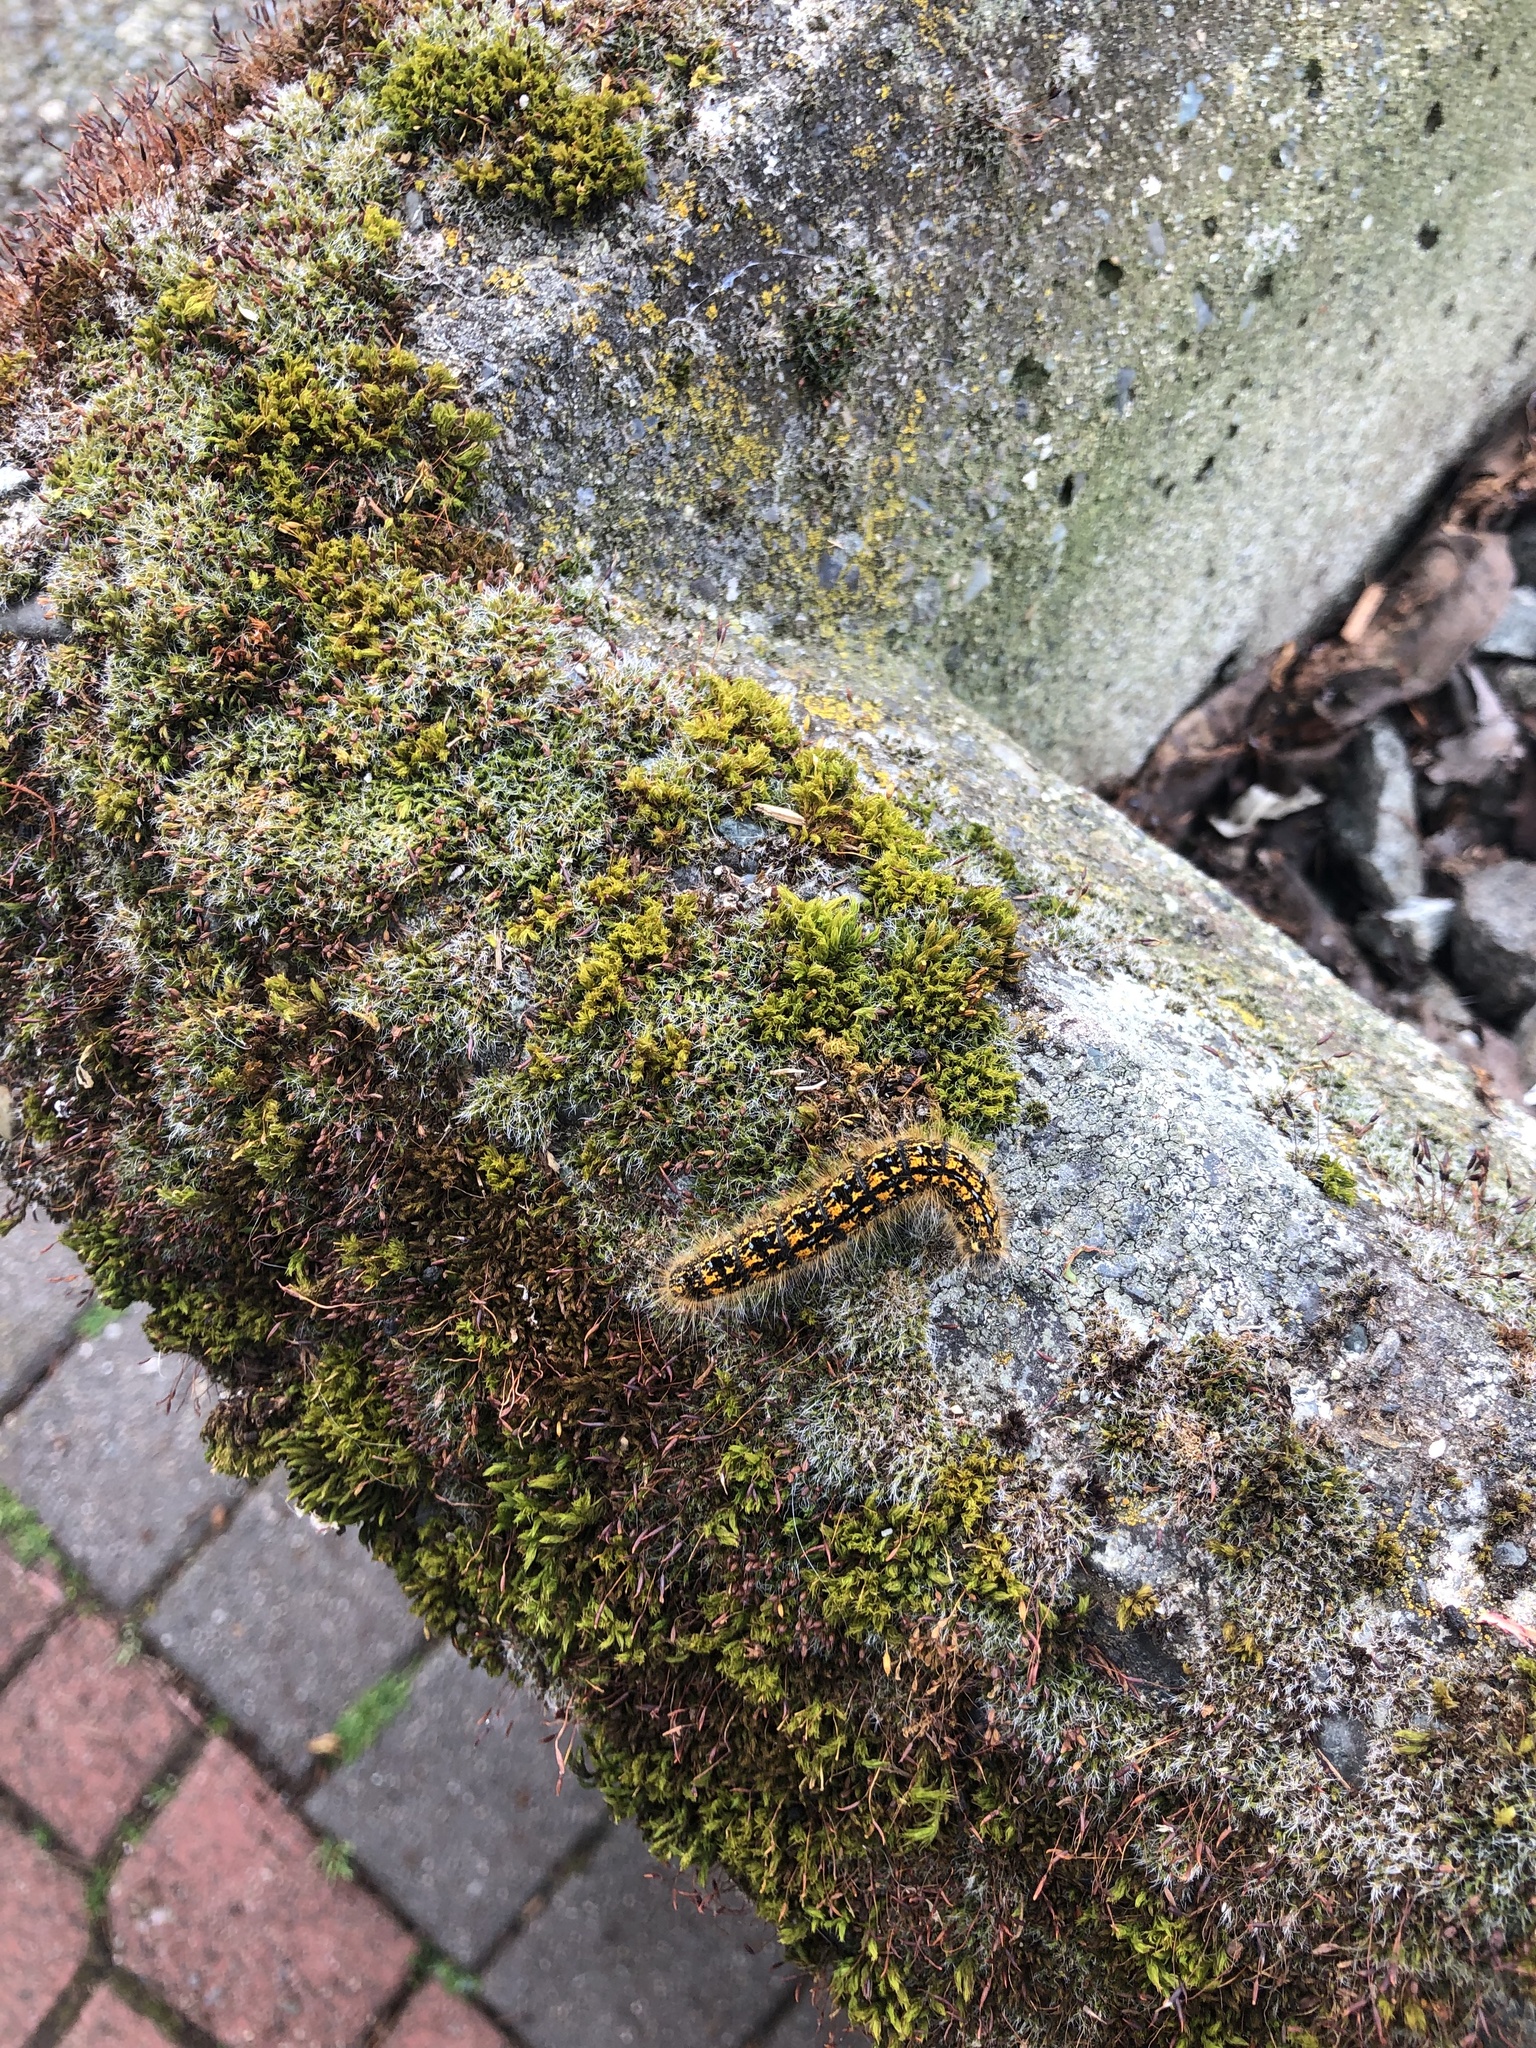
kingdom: Animalia
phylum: Arthropoda
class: Insecta
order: Lepidoptera
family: Lasiocampidae
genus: Malacosoma
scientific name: Malacosoma californica
